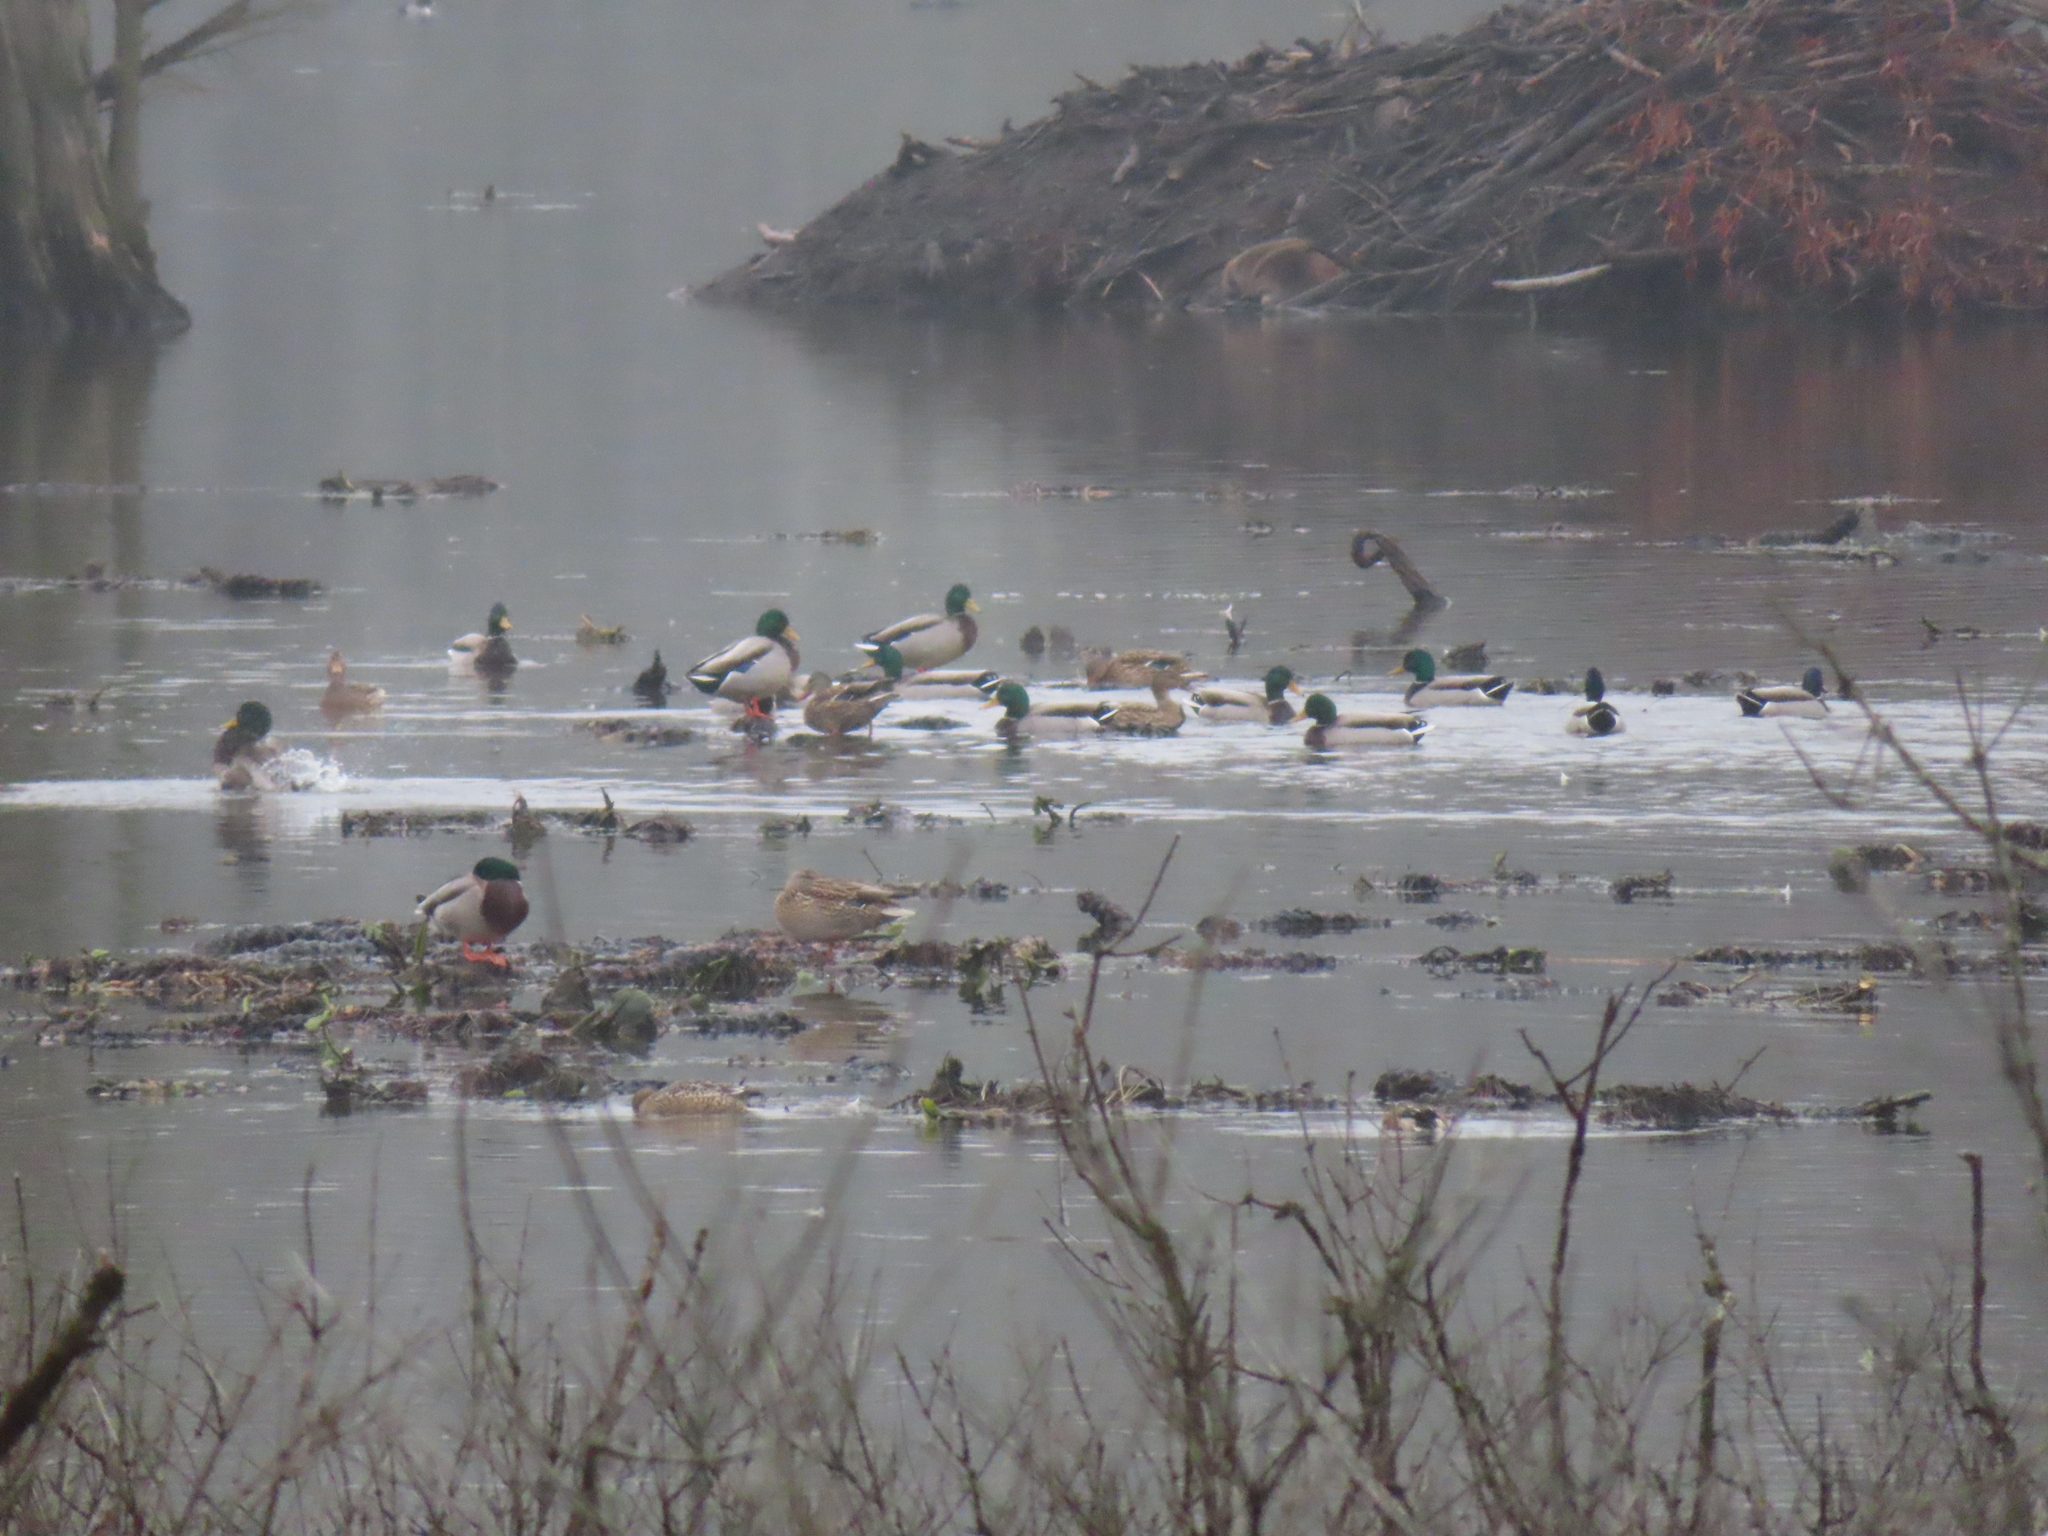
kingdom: Animalia
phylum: Chordata
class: Aves
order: Anseriformes
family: Anatidae
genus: Anas
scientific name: Anas platyrhynchos
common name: Mallard
